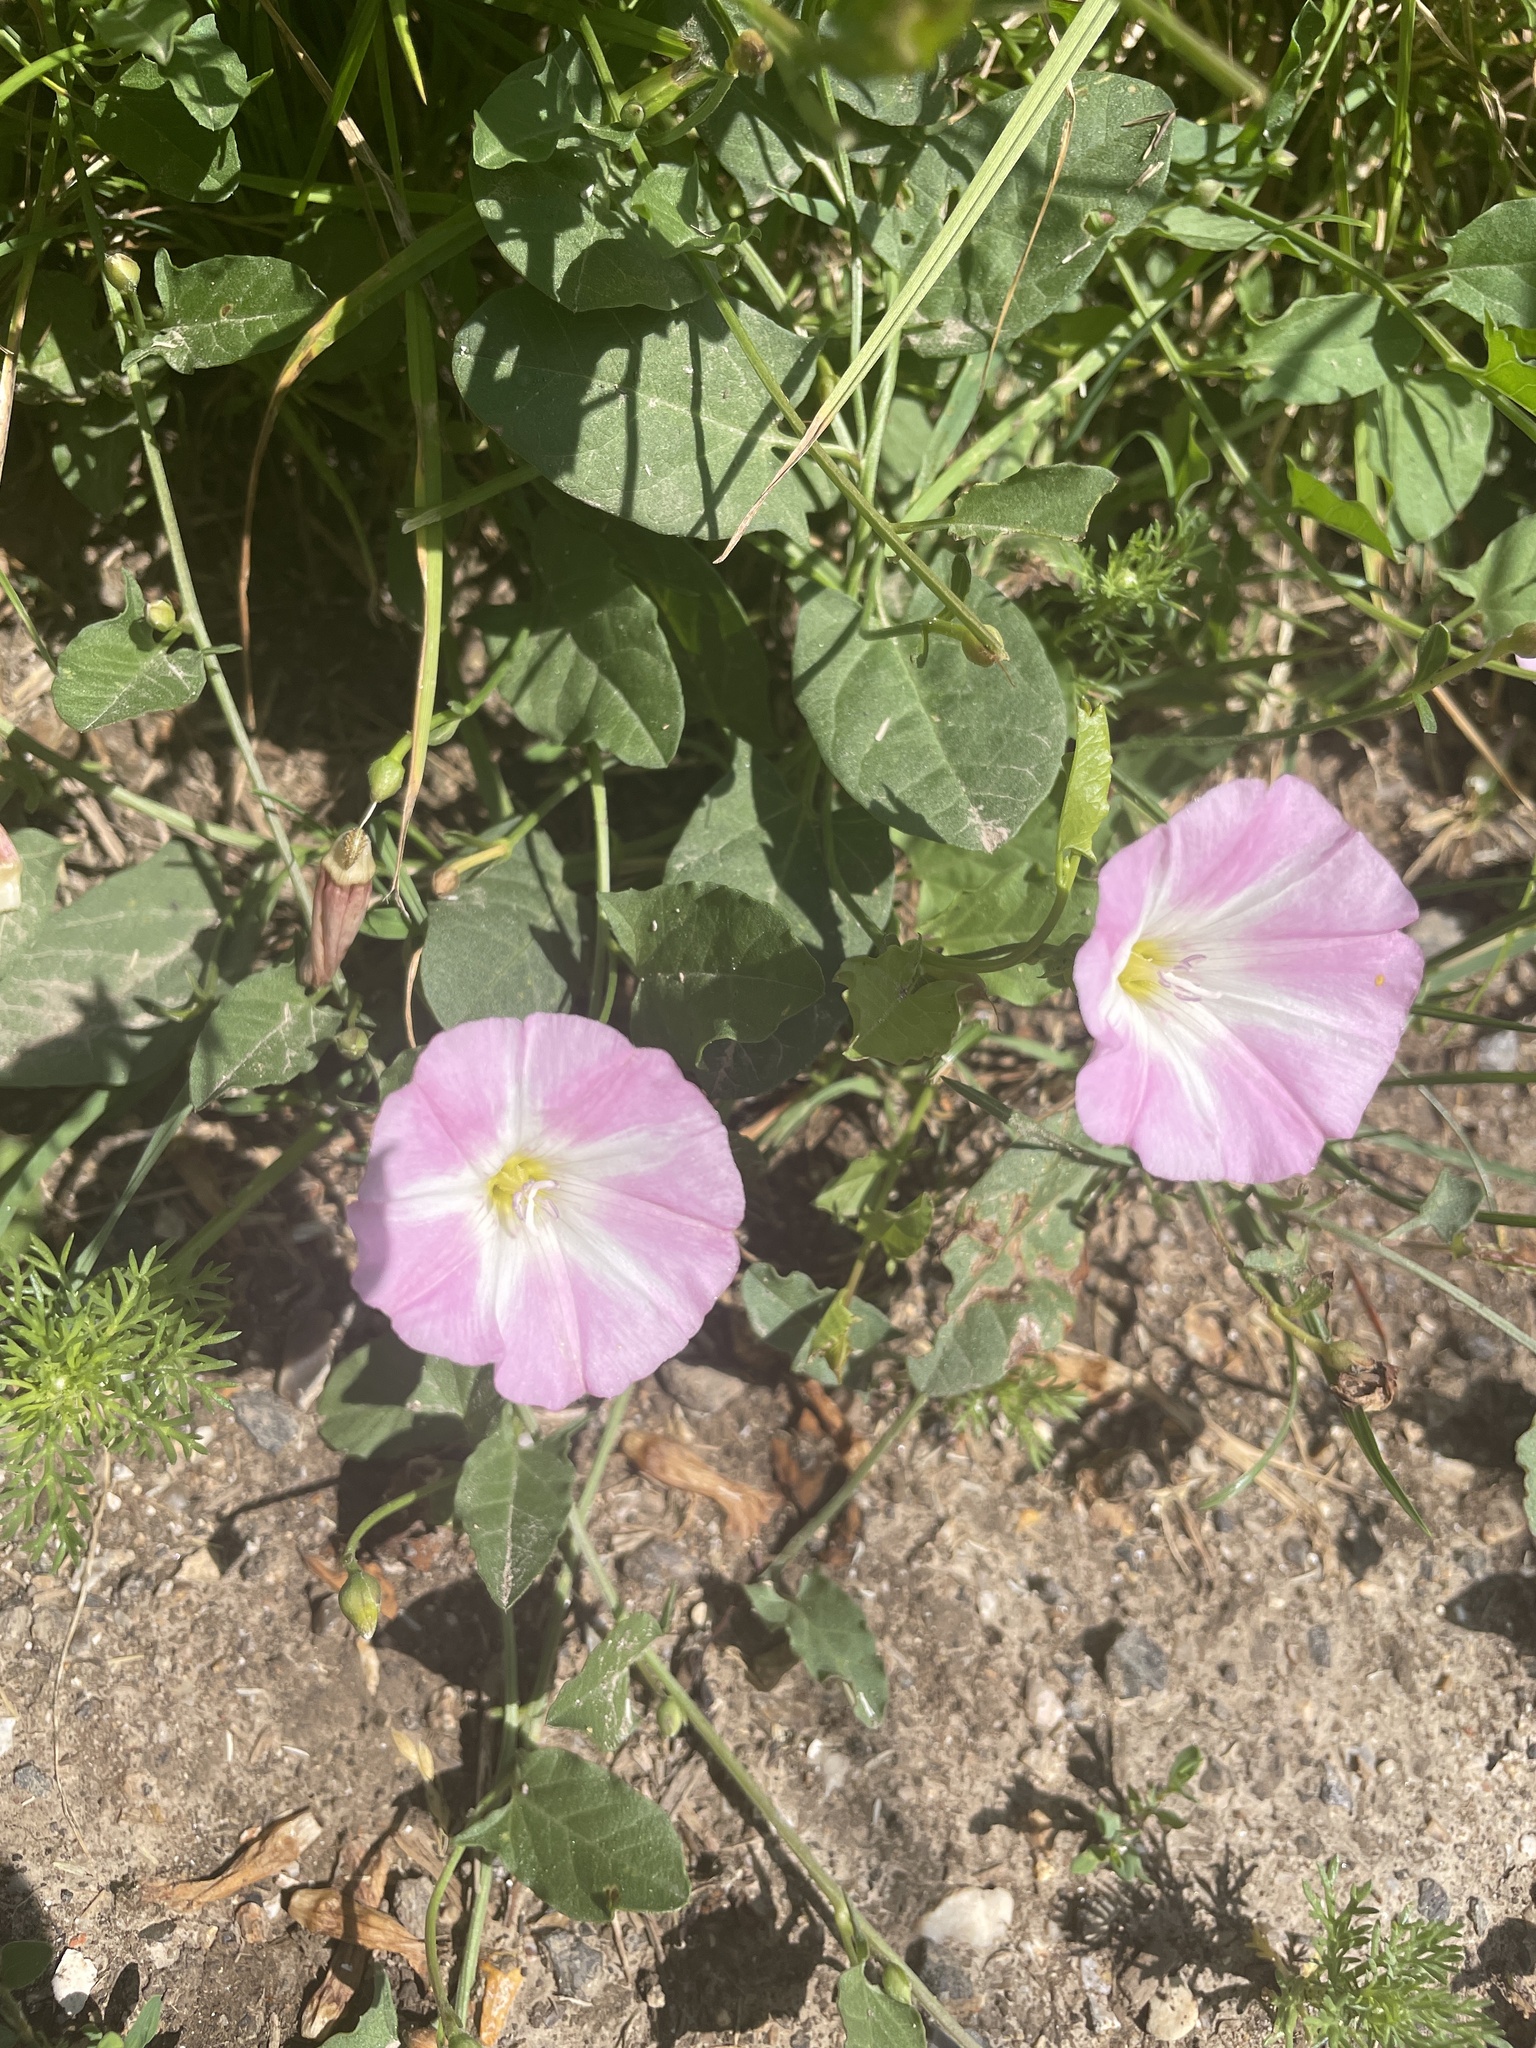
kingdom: Plantae
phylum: Tracheophyta
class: Magnoliopsida
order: Solanales
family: Convolvulaceae
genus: Convolvulus
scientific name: Convolvulus arvensis
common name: Field bindweed
